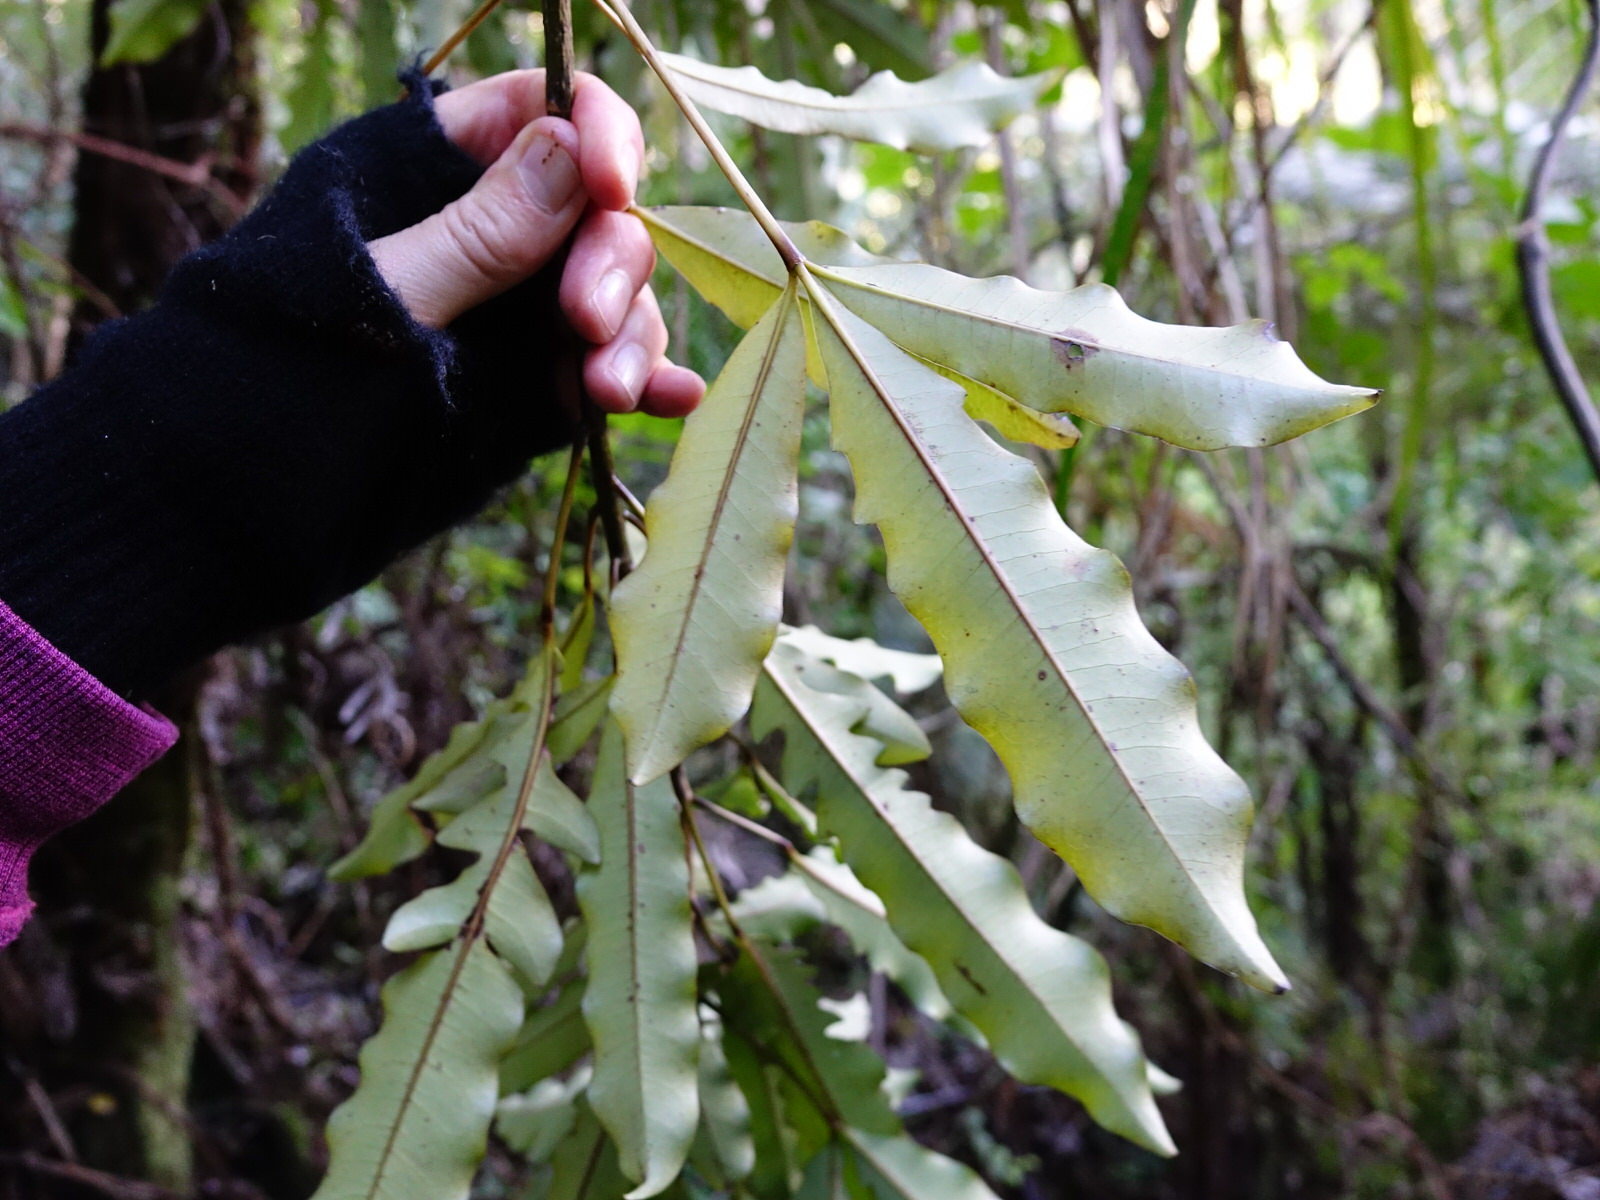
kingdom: Plantae
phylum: Tracheophyta
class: Magnoliopsida
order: Apiales
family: Araliaceae
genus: Raukaua
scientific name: Raukaua edgerleyi
